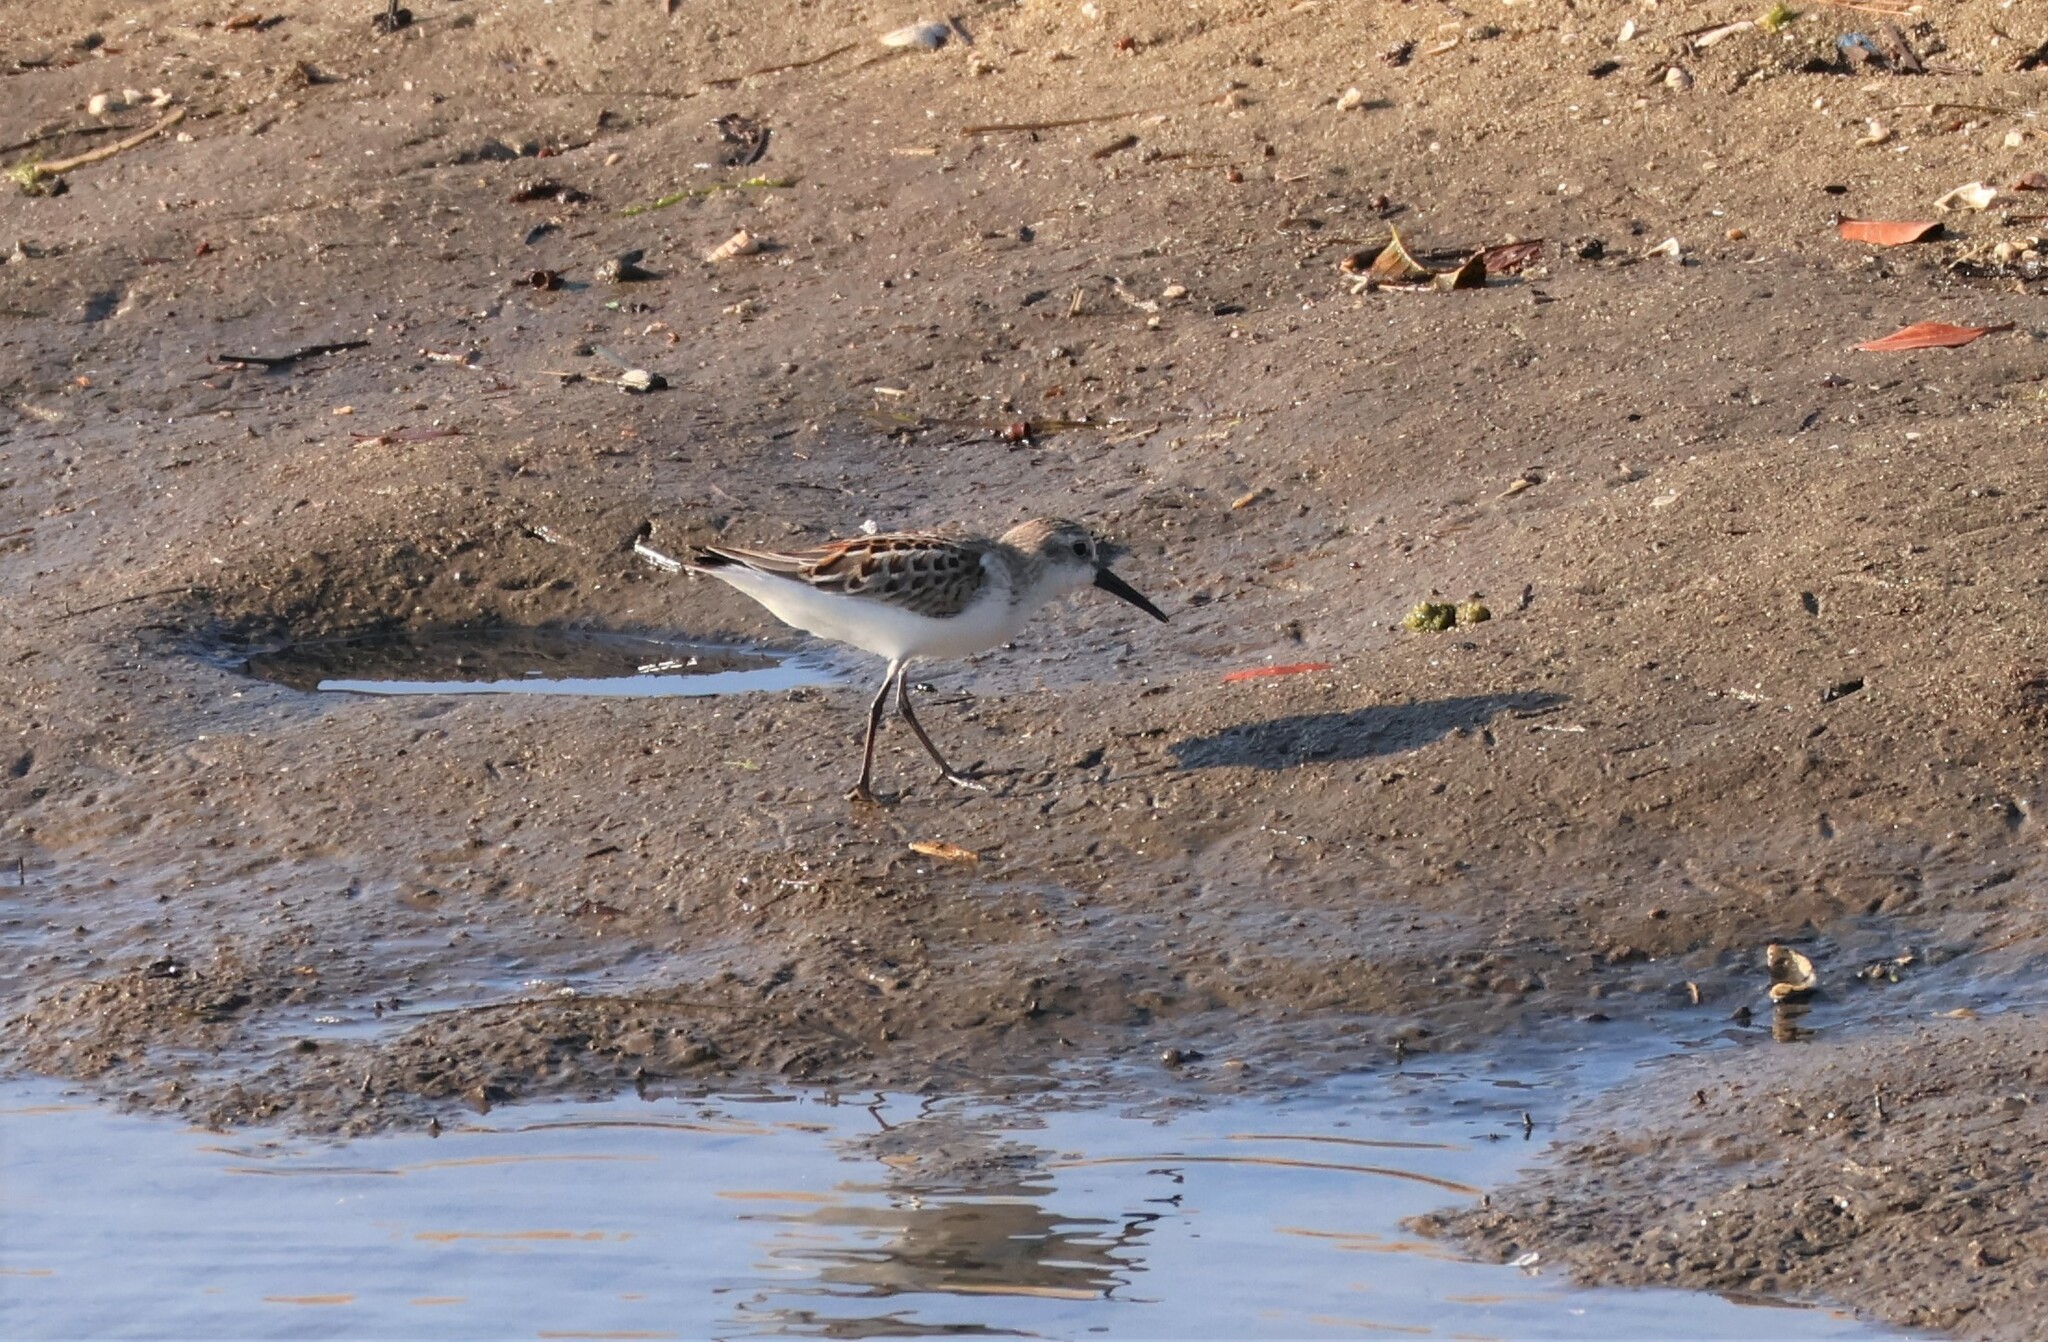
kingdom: Animalia
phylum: Chordata
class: Aves
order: Charadriiformes
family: Scolopacidae
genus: Calidris
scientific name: Calidris mauri
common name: Western sandpiper
